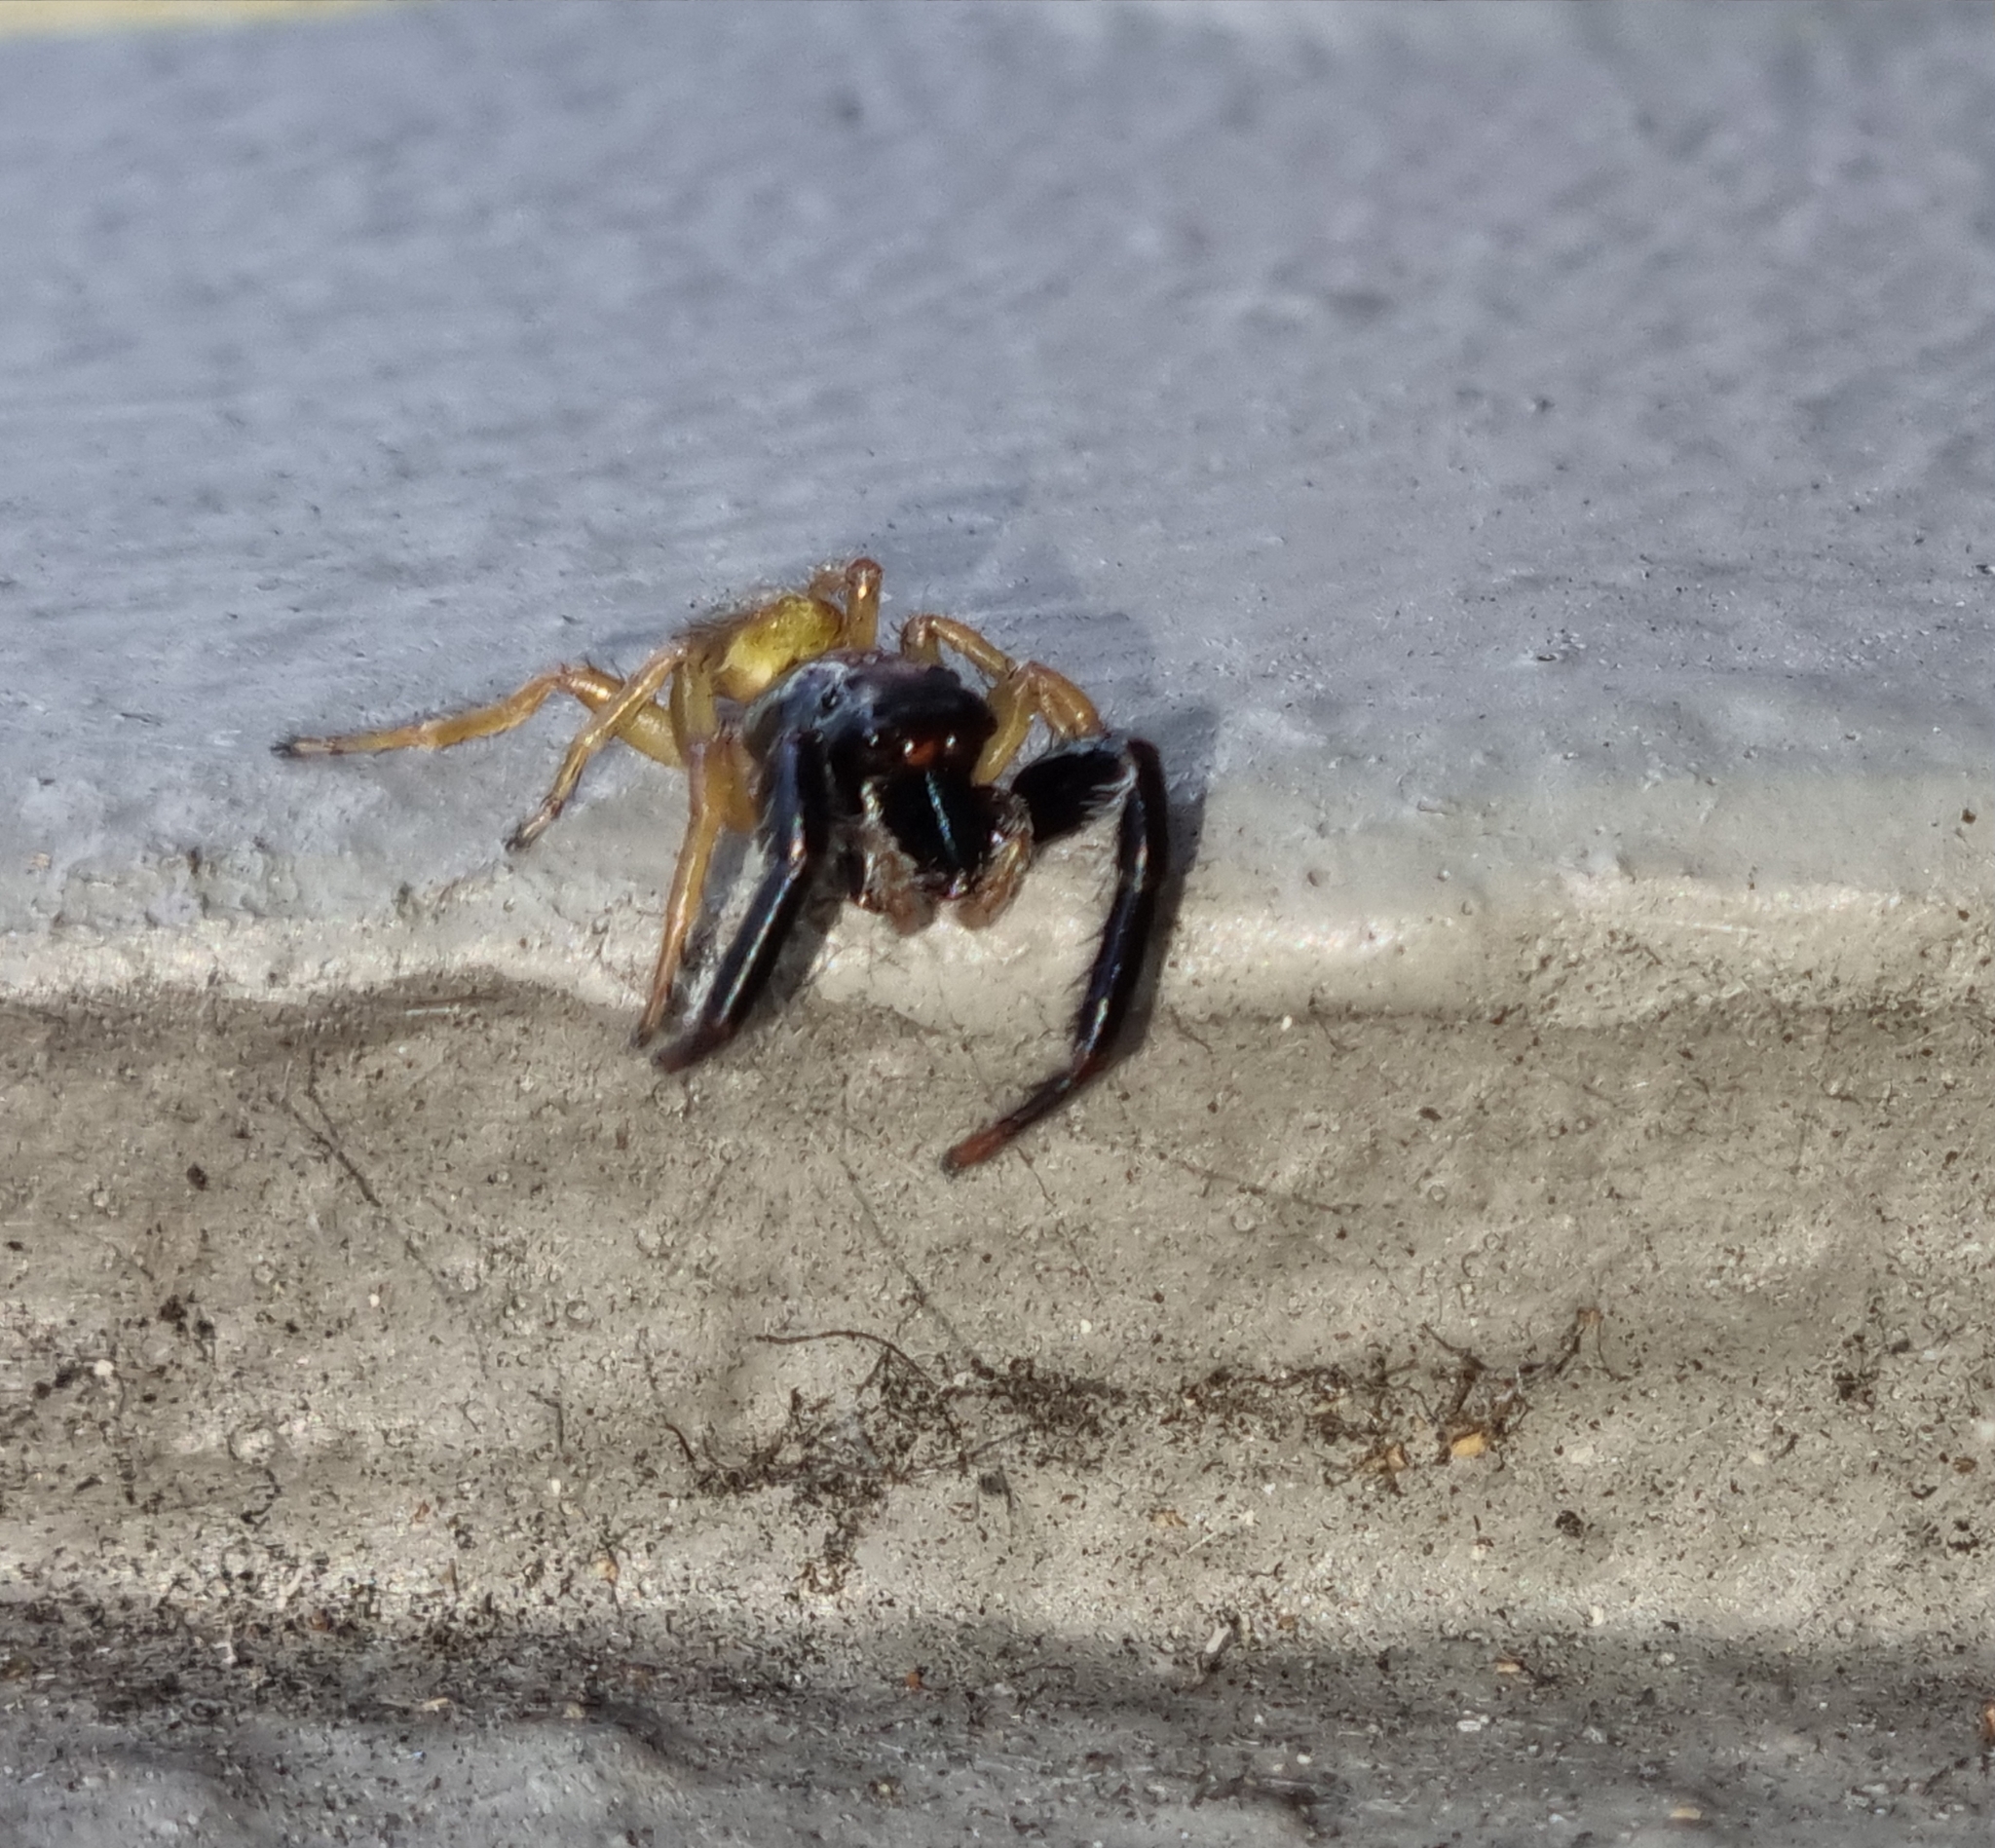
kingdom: Animalia
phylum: Arthropoda
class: Arachnida
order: Araneae
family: Salticidae
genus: Trite
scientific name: Trite planiceps
